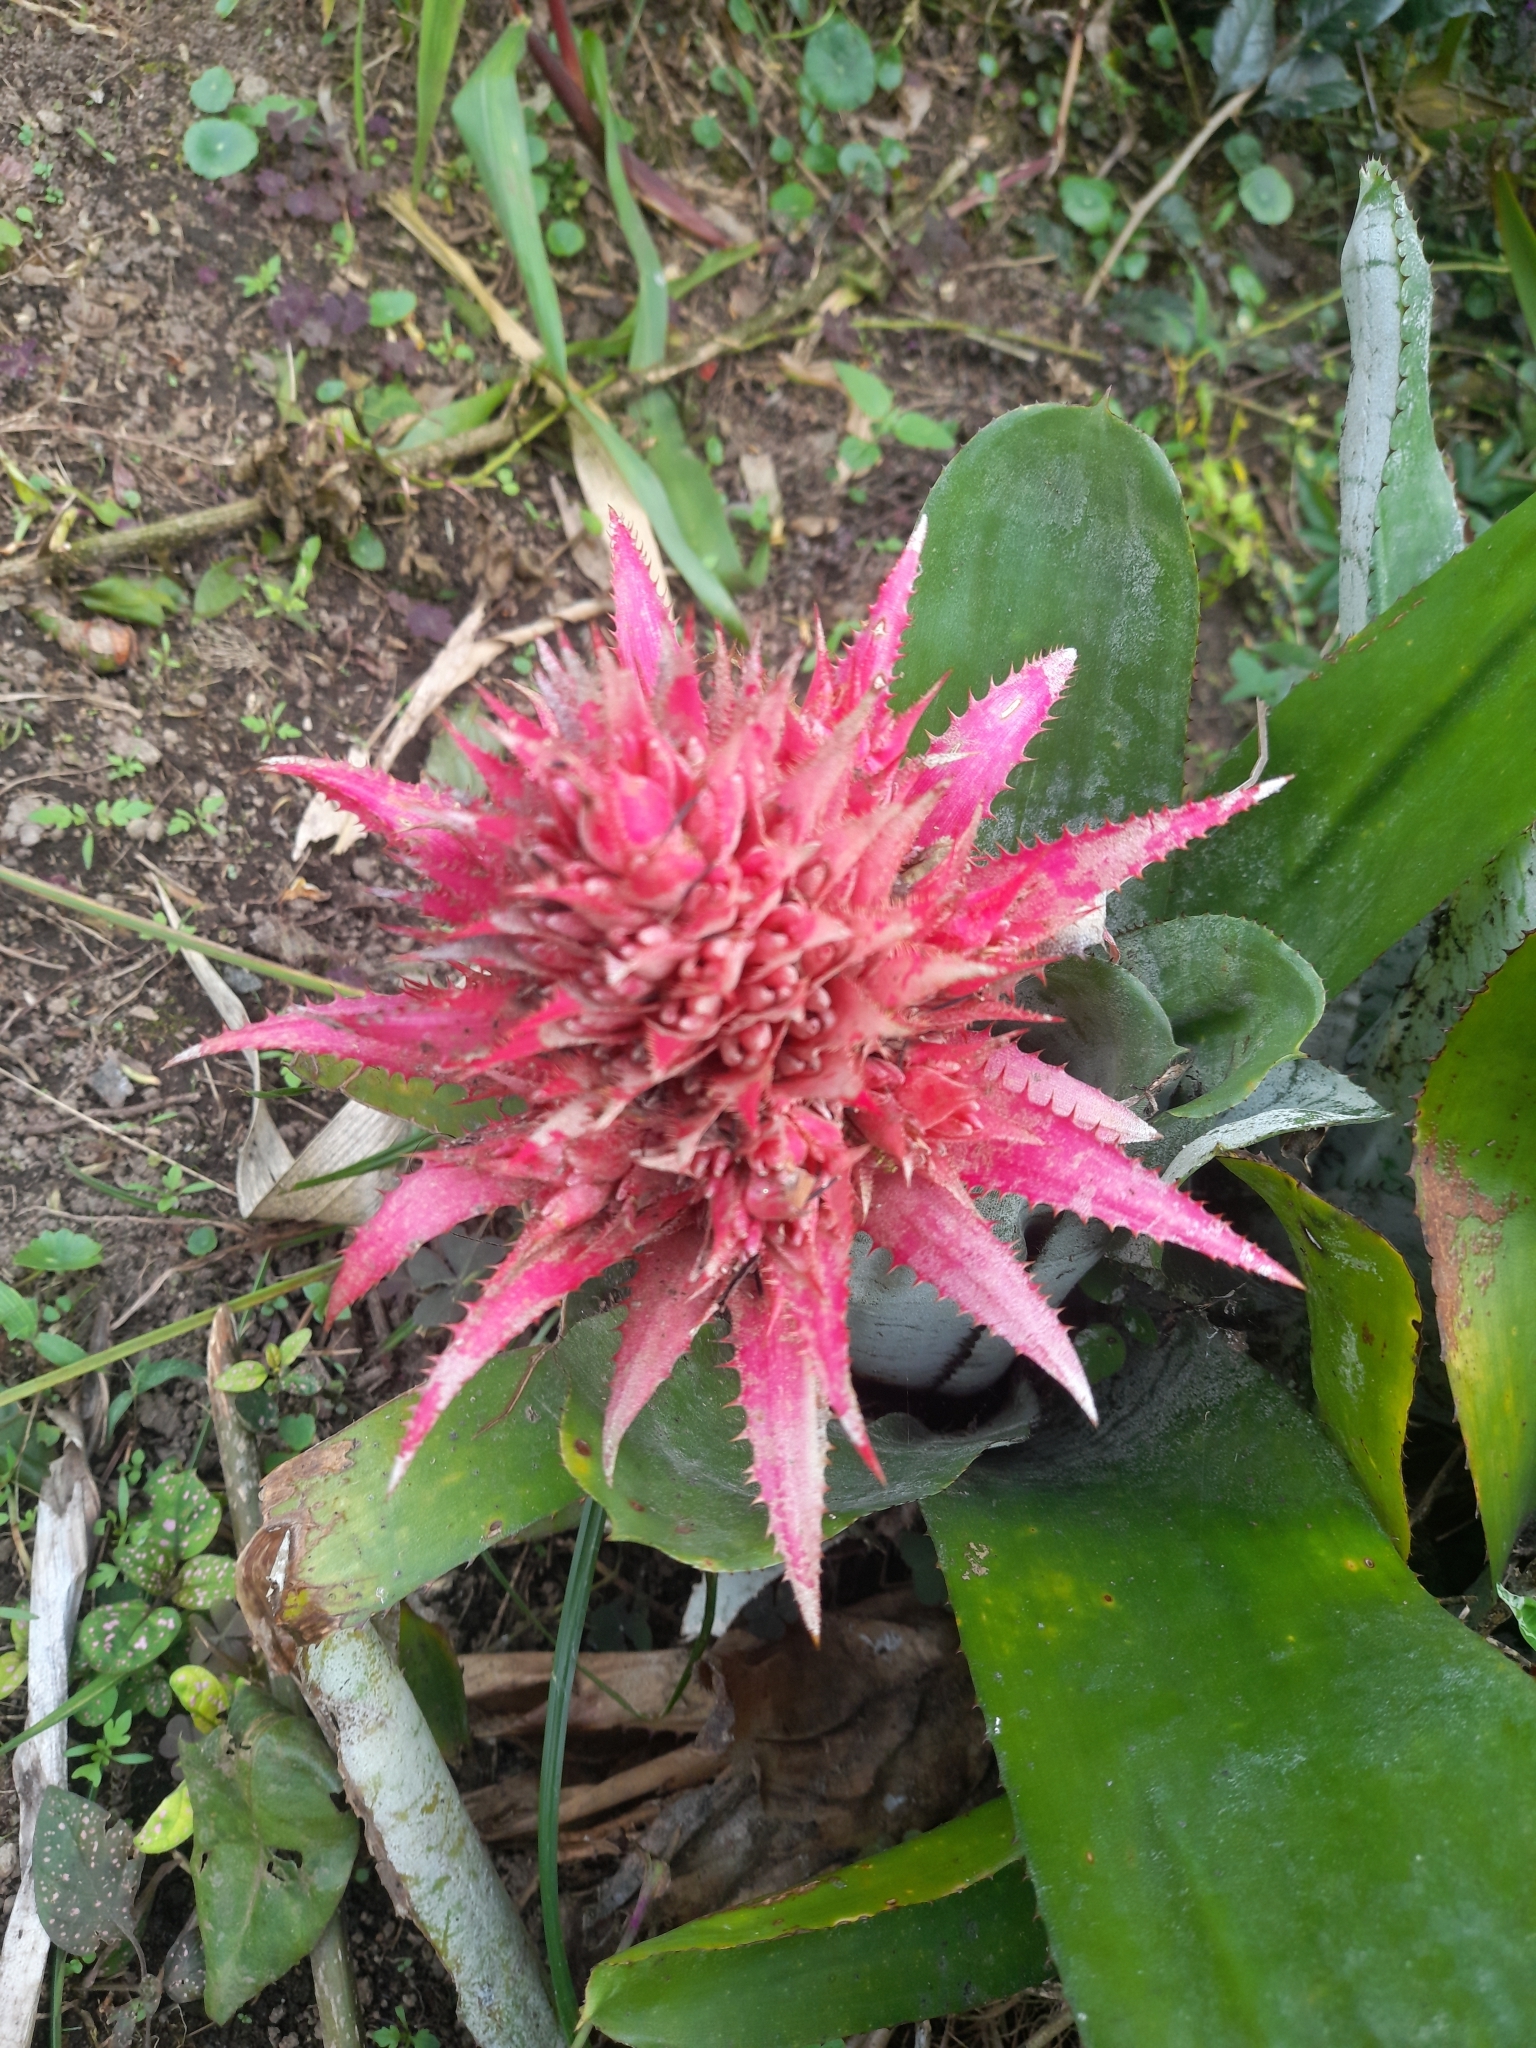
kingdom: Plantae
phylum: Tracheophyta
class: Liliopsida
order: Poales
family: Bromeliaceae
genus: Aechmea
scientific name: Aechmea fasciata
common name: Urnplant
